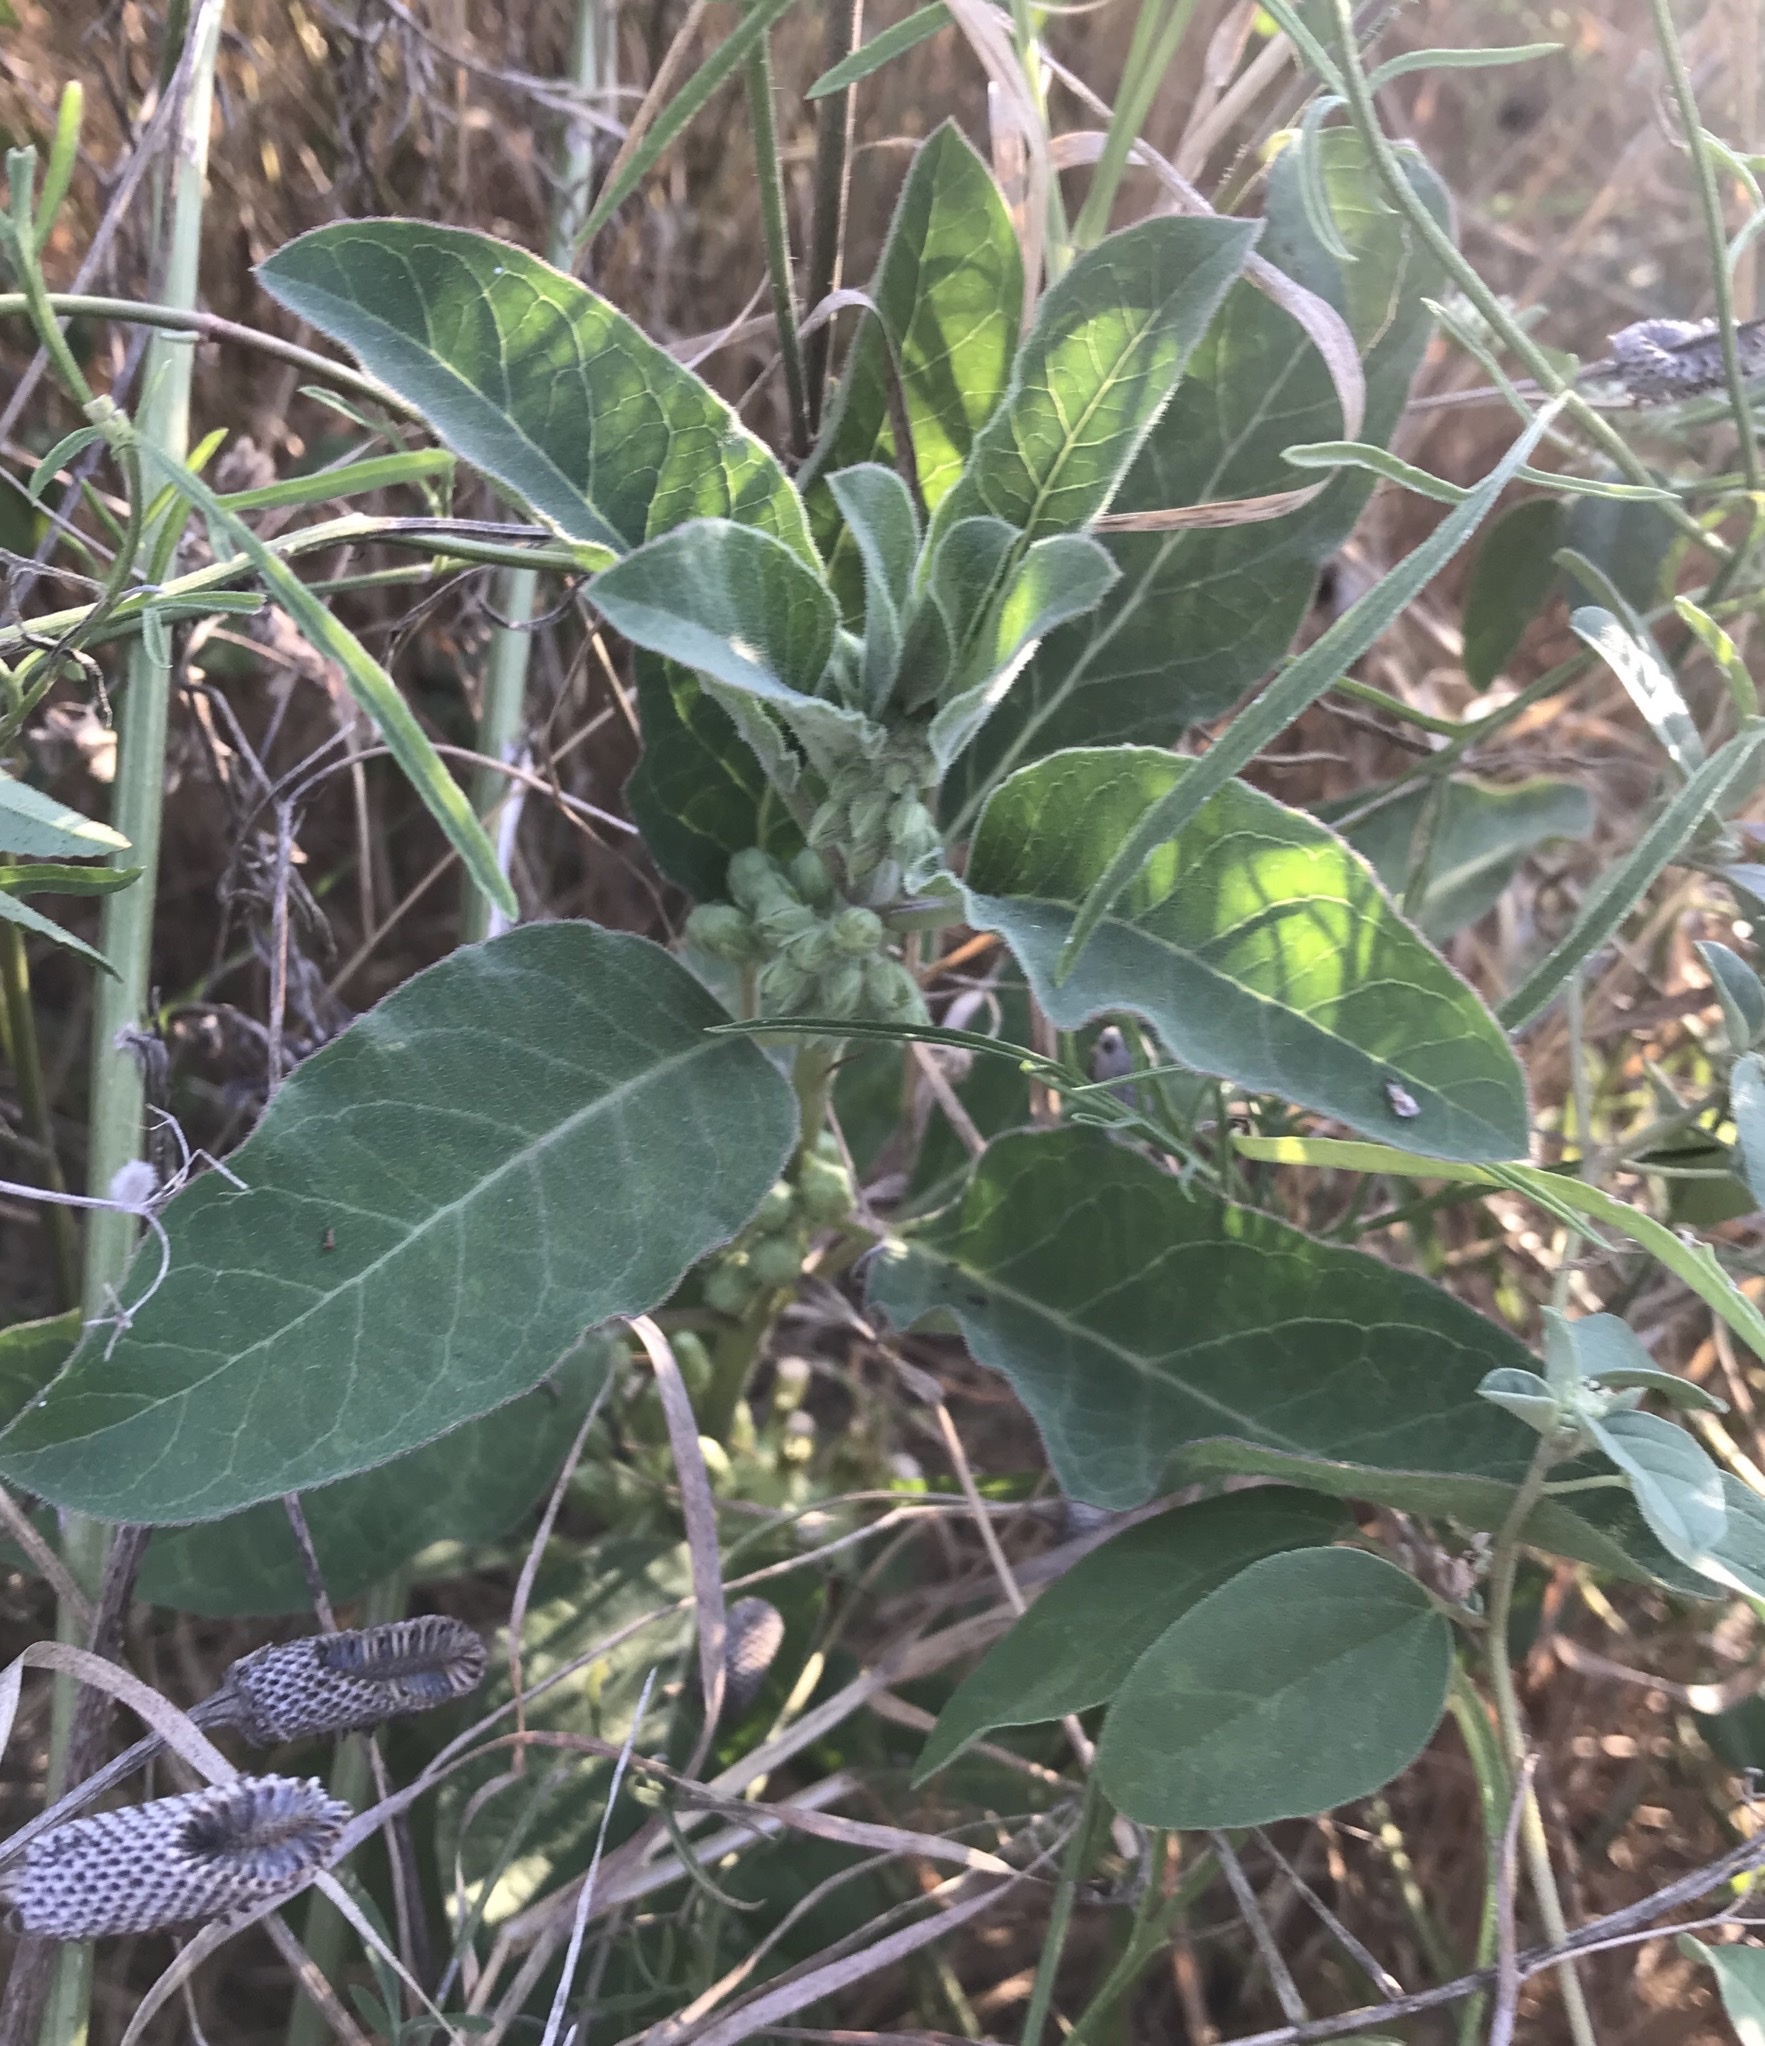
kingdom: Plantae
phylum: Tracheophyta
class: Magnoliopsida
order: Gentianales
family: Apocynaceae
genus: Asclepias
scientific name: Asclepias oenotheroides
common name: Zizotes milkweed
